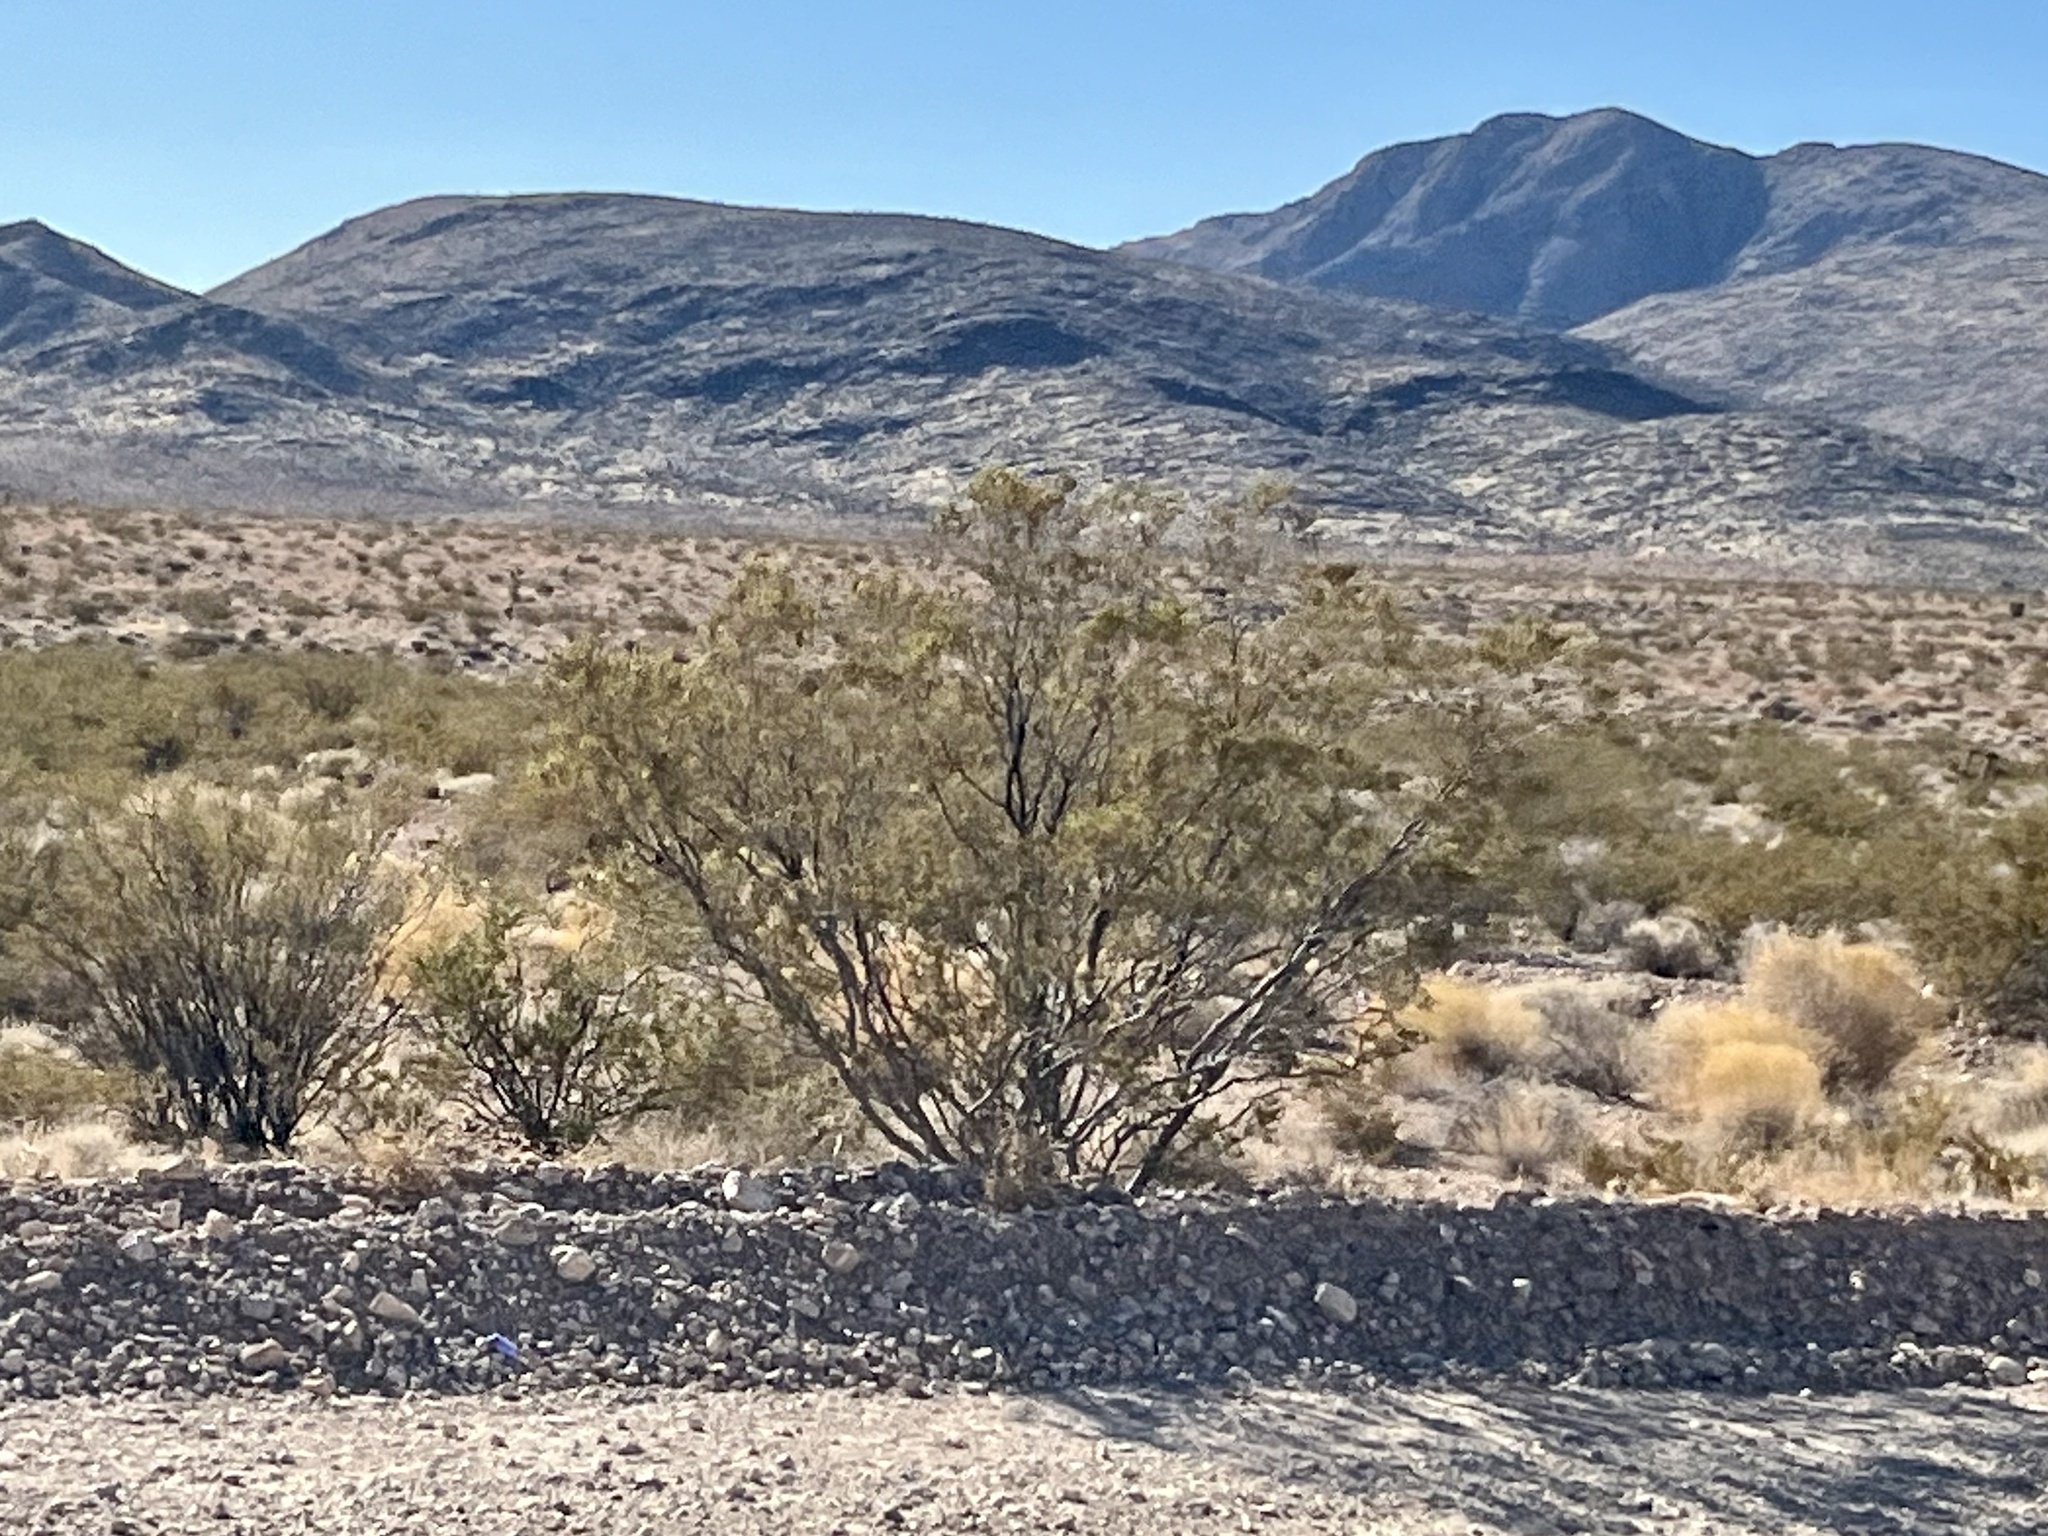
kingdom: Plantae
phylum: Tracheophyta
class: Magnoliopsida
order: Zygophyllales
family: Zygophyllaceae
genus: Larrea
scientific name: Larrea tridentata
